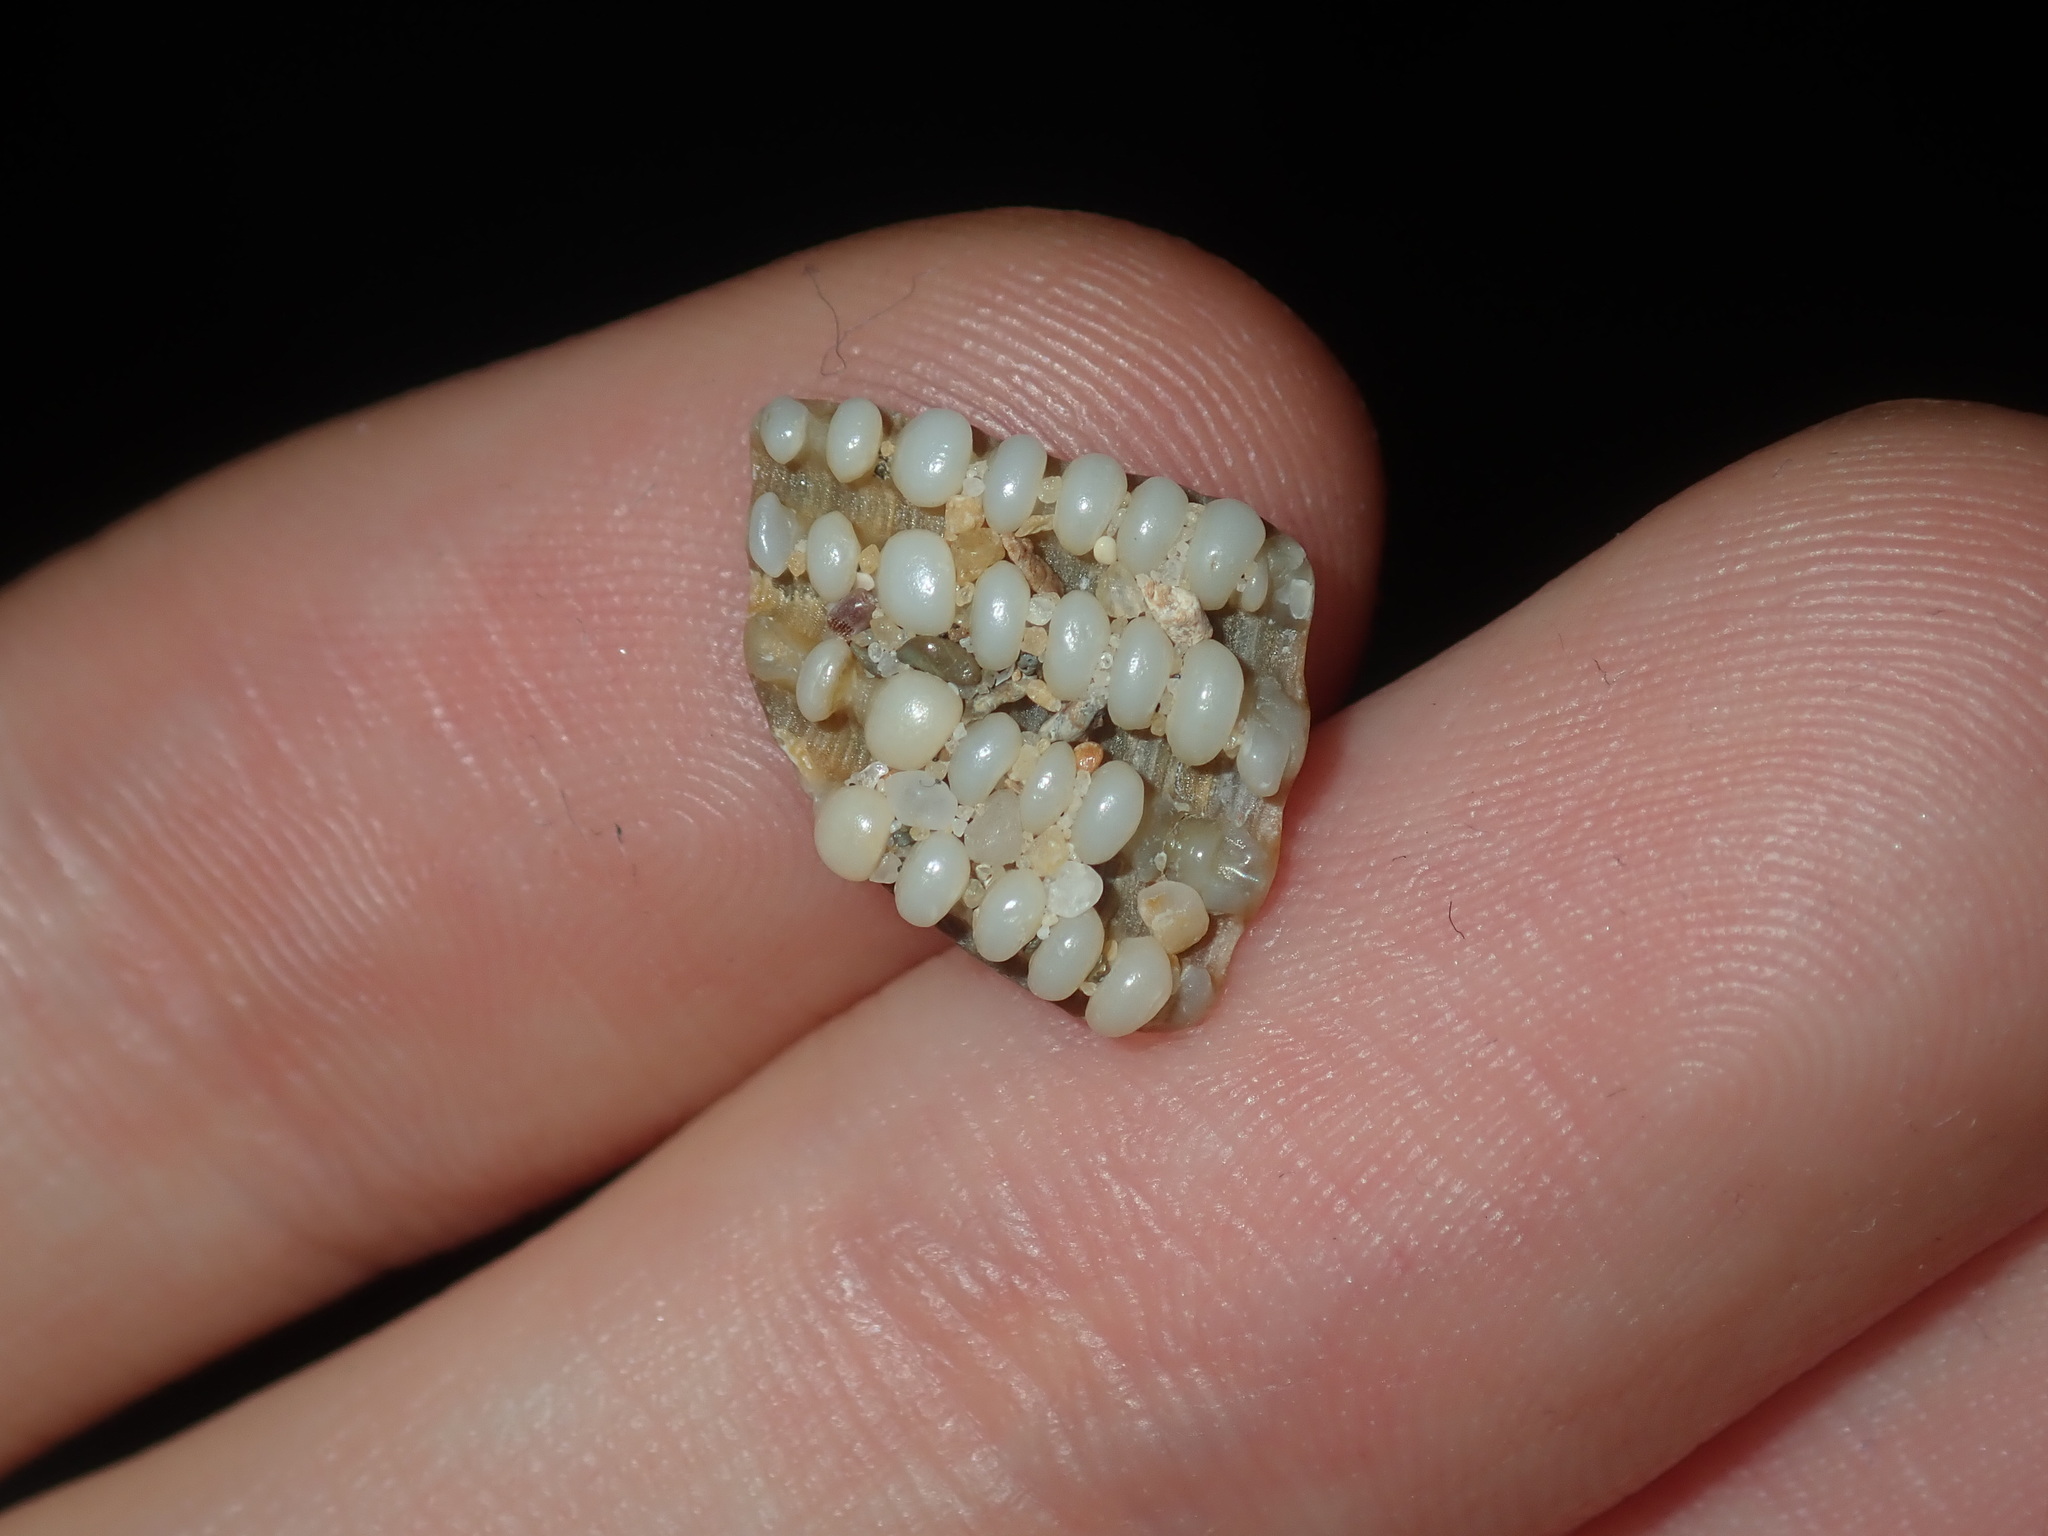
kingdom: Animalia
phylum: Mollusca
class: Bivalvia
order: Trigoniida
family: Trigoniidae
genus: Neotrigonia
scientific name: Neotrigonia lamarckii
